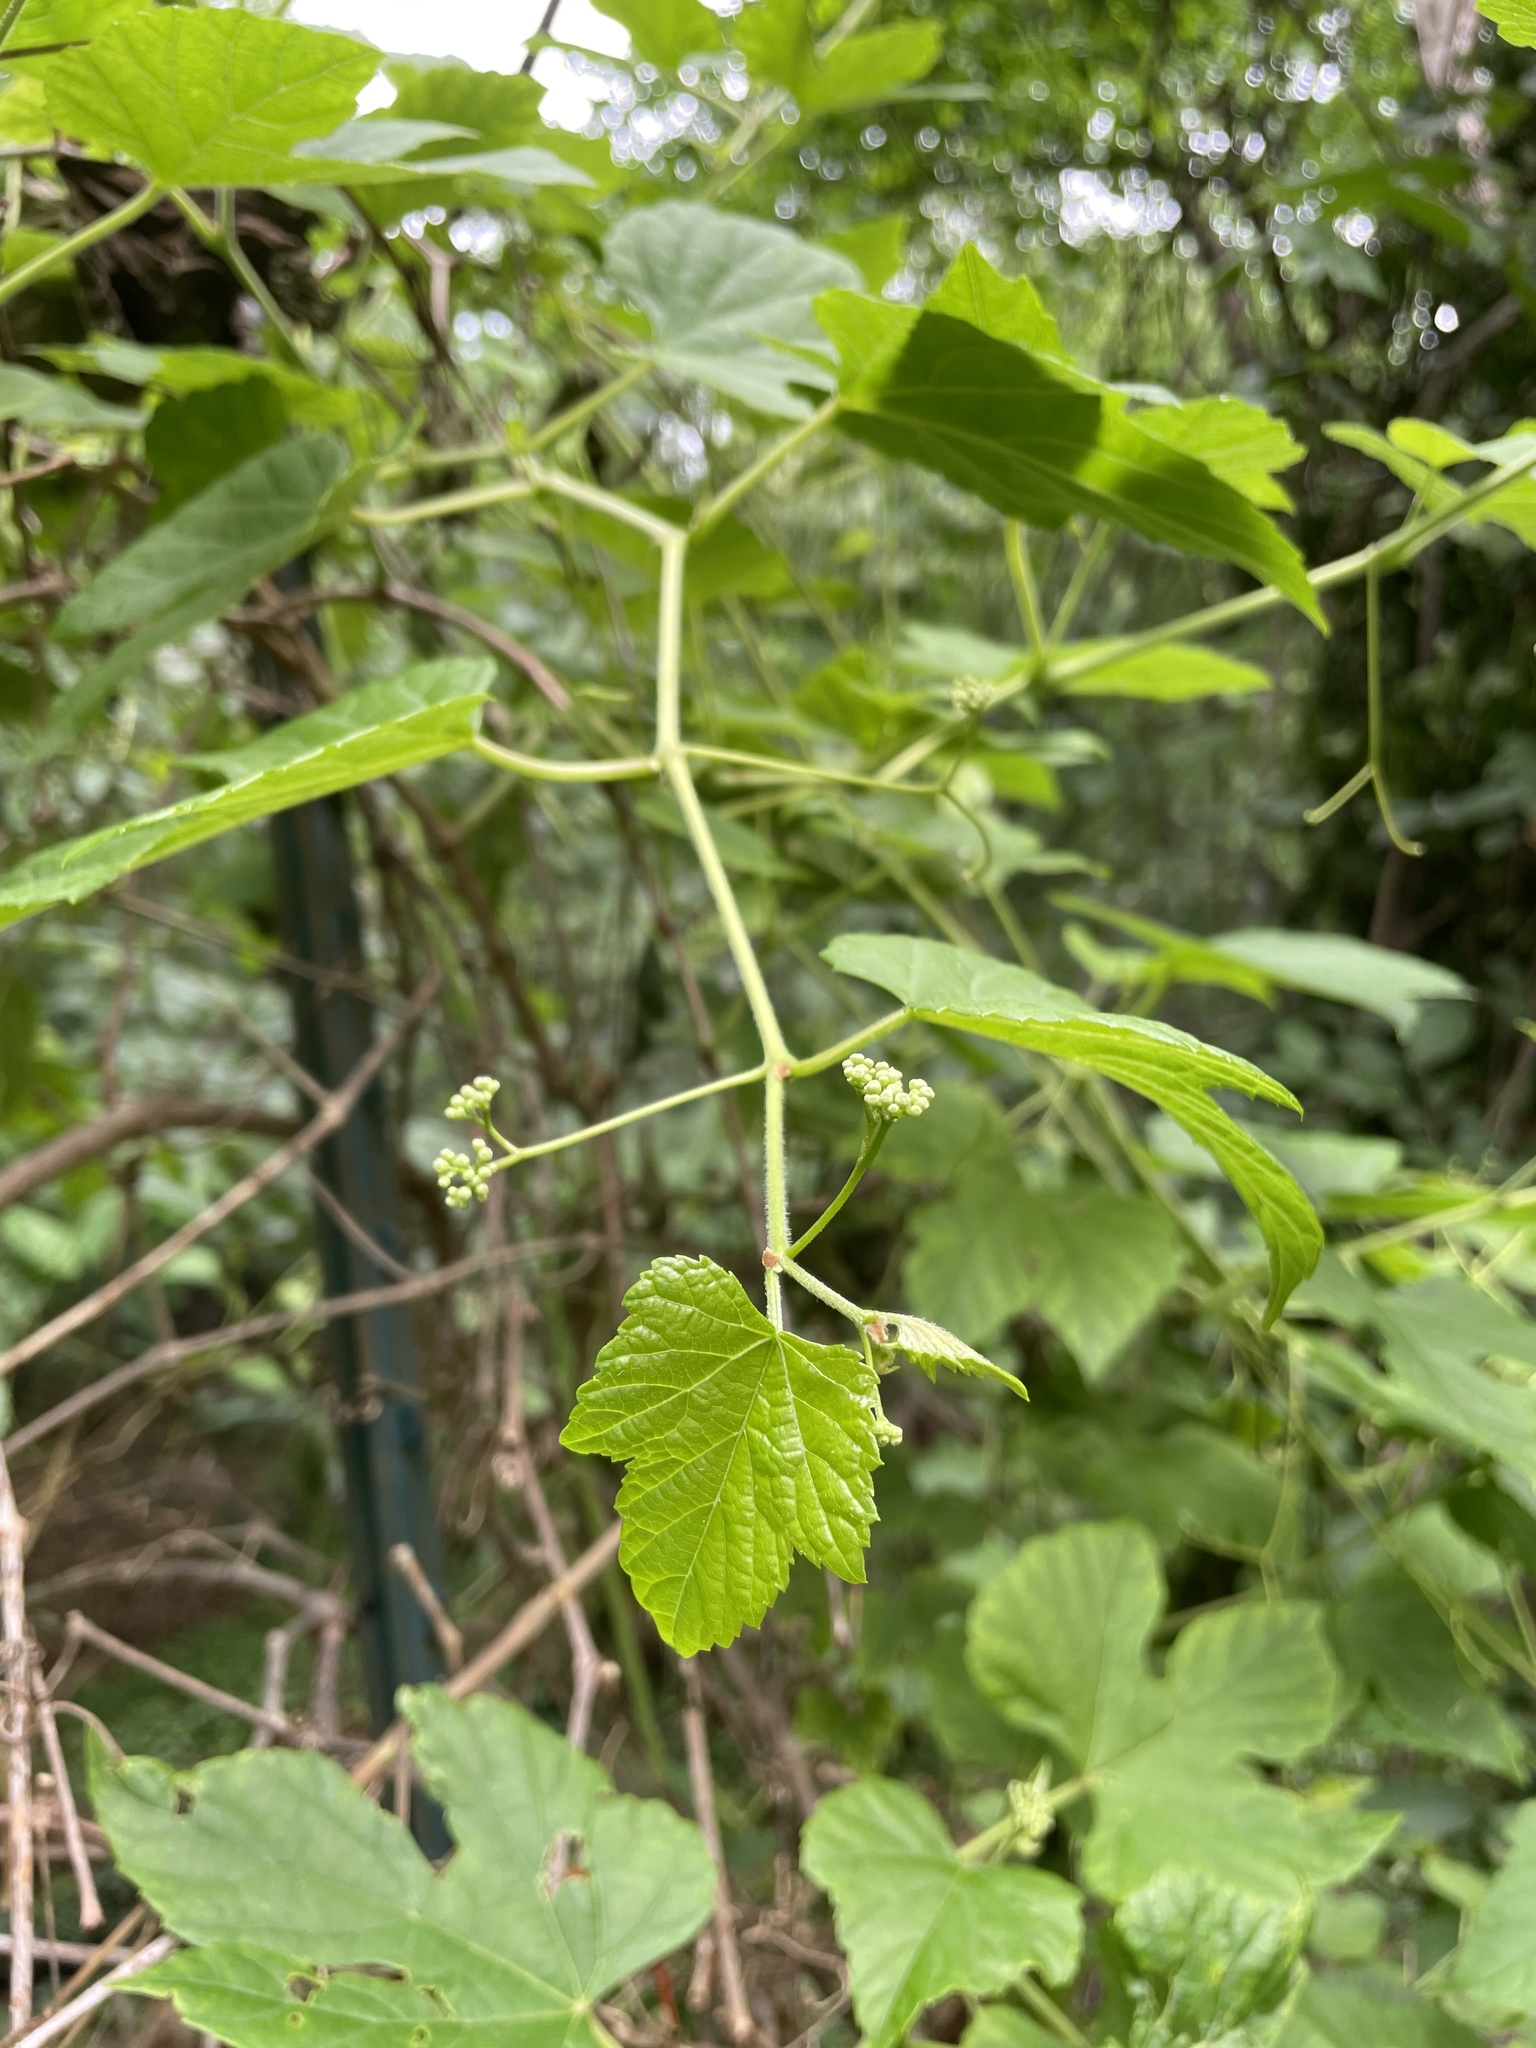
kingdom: Plantae
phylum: Tracheophyta
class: Magnoliopsida
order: Vitales
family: Vitaceae
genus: Ampelopsis
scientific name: Ampelopsis glandulosa
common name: Amur peppervine
